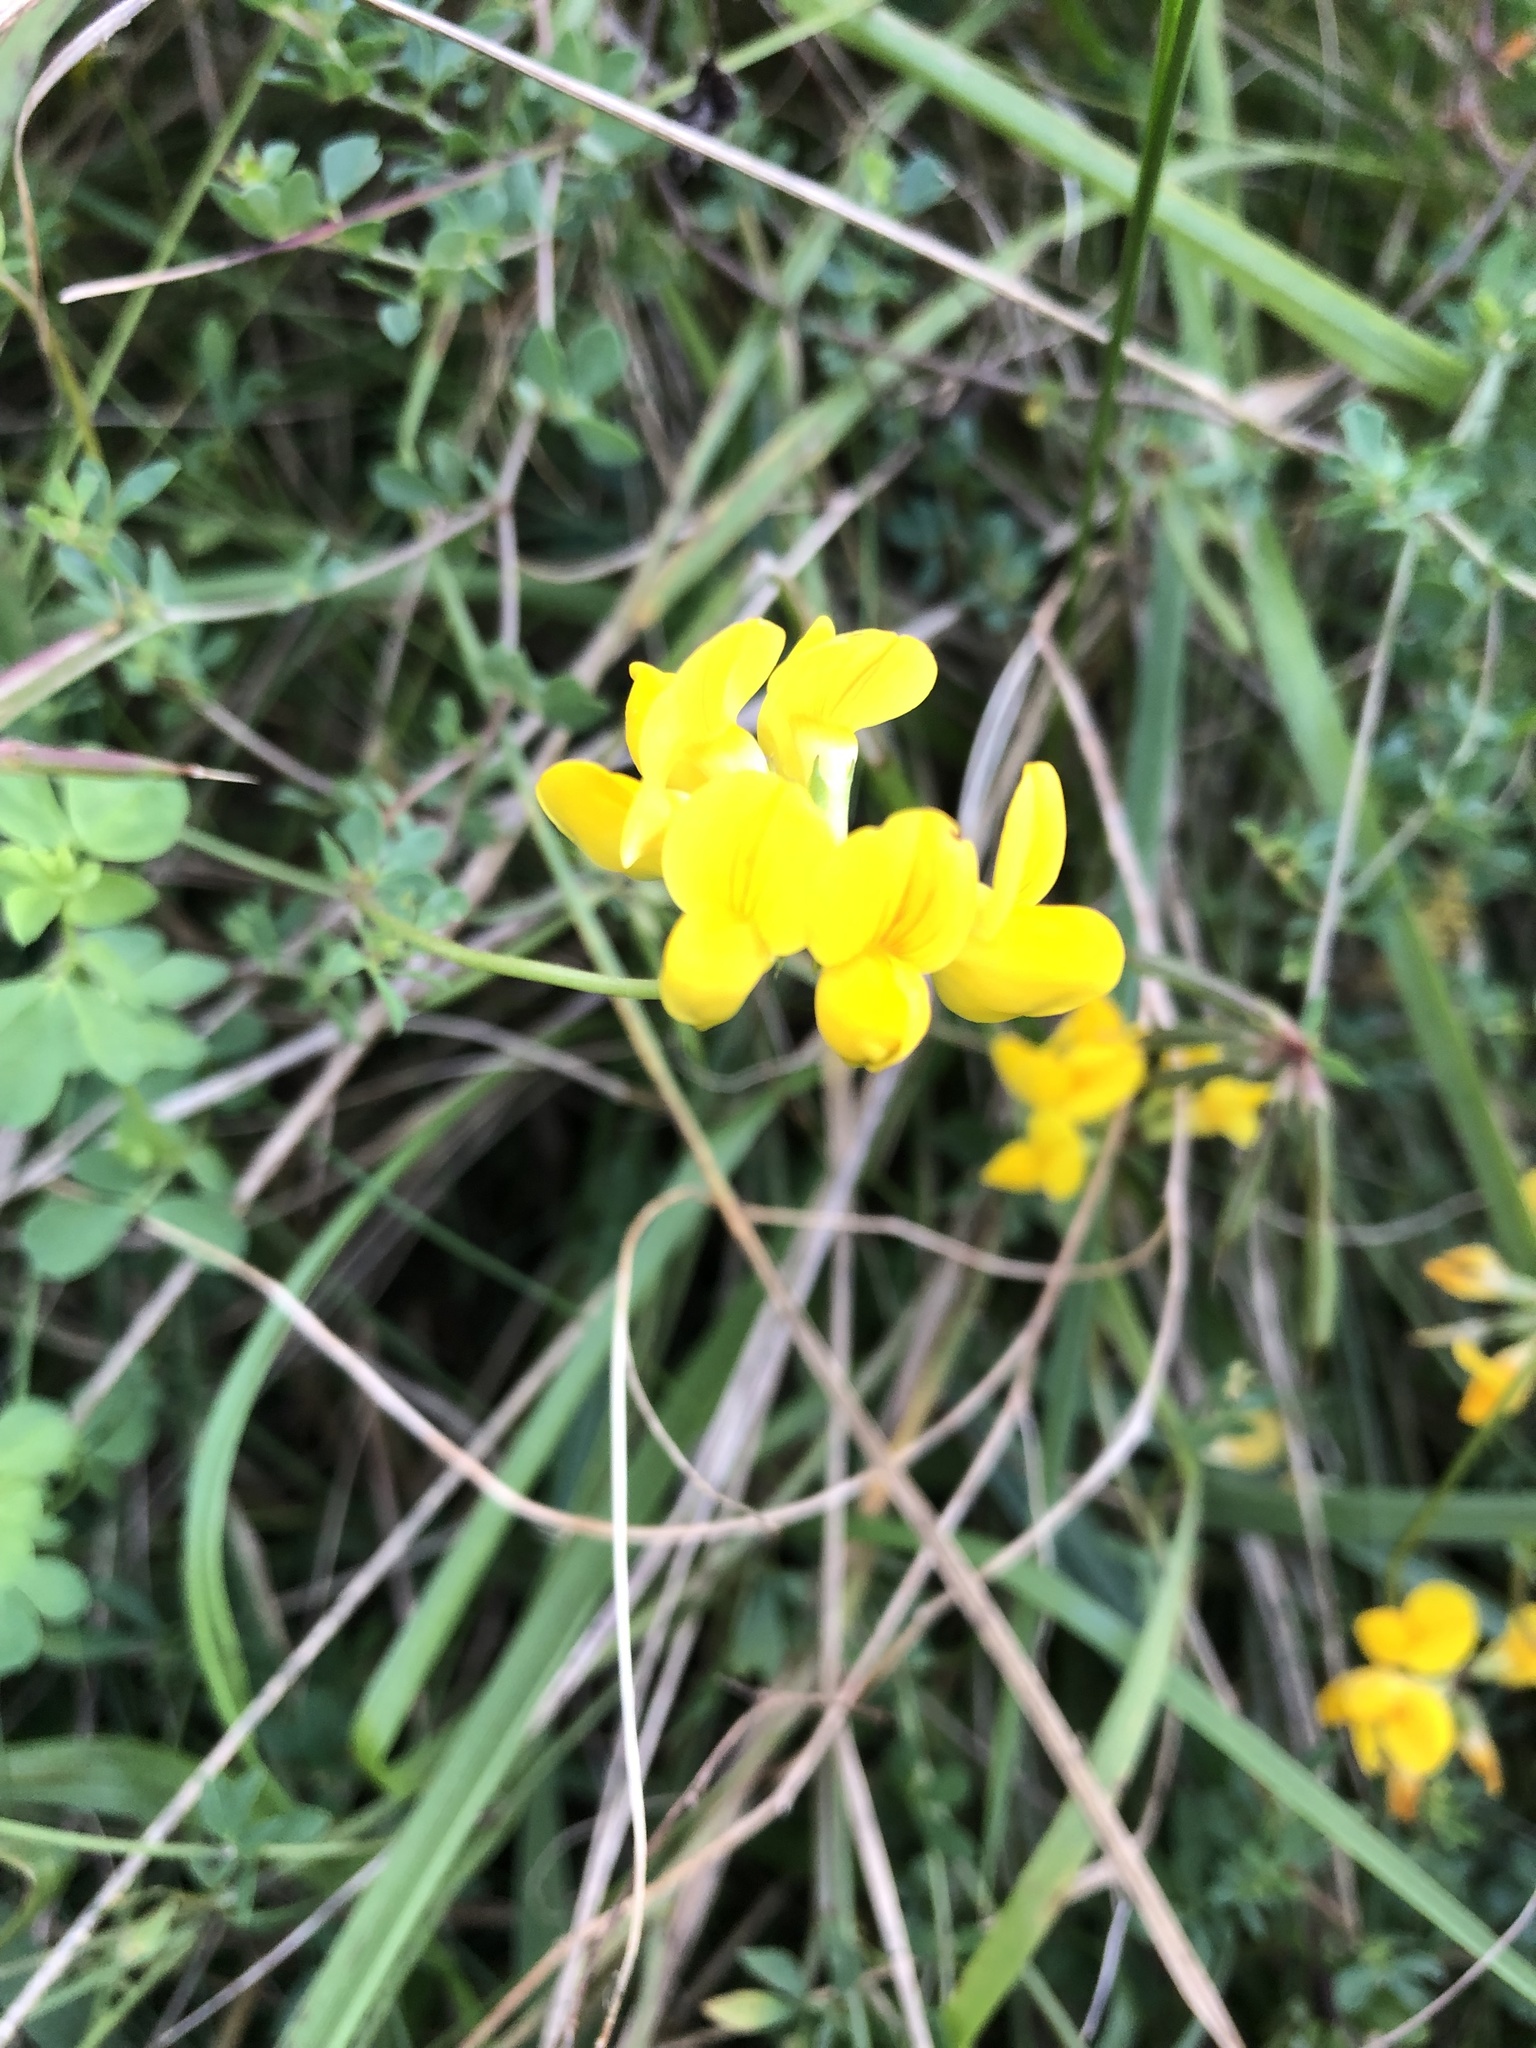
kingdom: Plantae
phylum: Tracheophyta
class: Magnoliopsida
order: Fabales
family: Fabaceae
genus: Lotus
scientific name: Lotus corniculatus
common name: Common bird's-foot-trefoil
